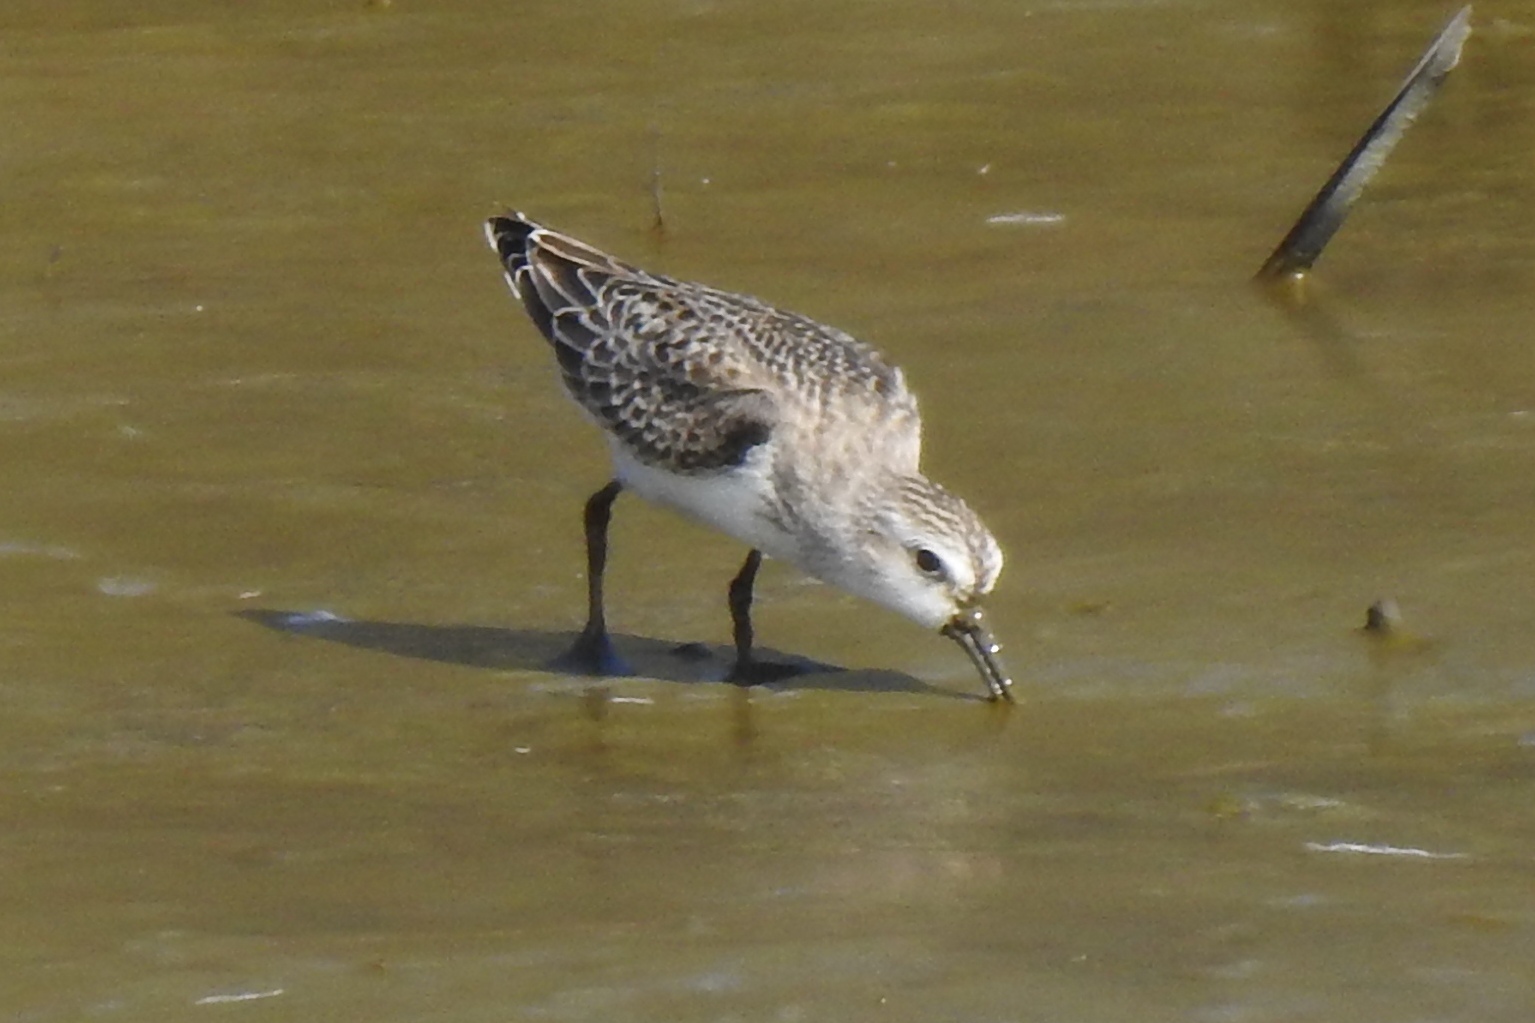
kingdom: Animalia
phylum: Chordata
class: Aves
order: Charadriiformes
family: Scolopacidae
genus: Calidris
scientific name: Calidris pusilla
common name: Semipalmated sandpiper
